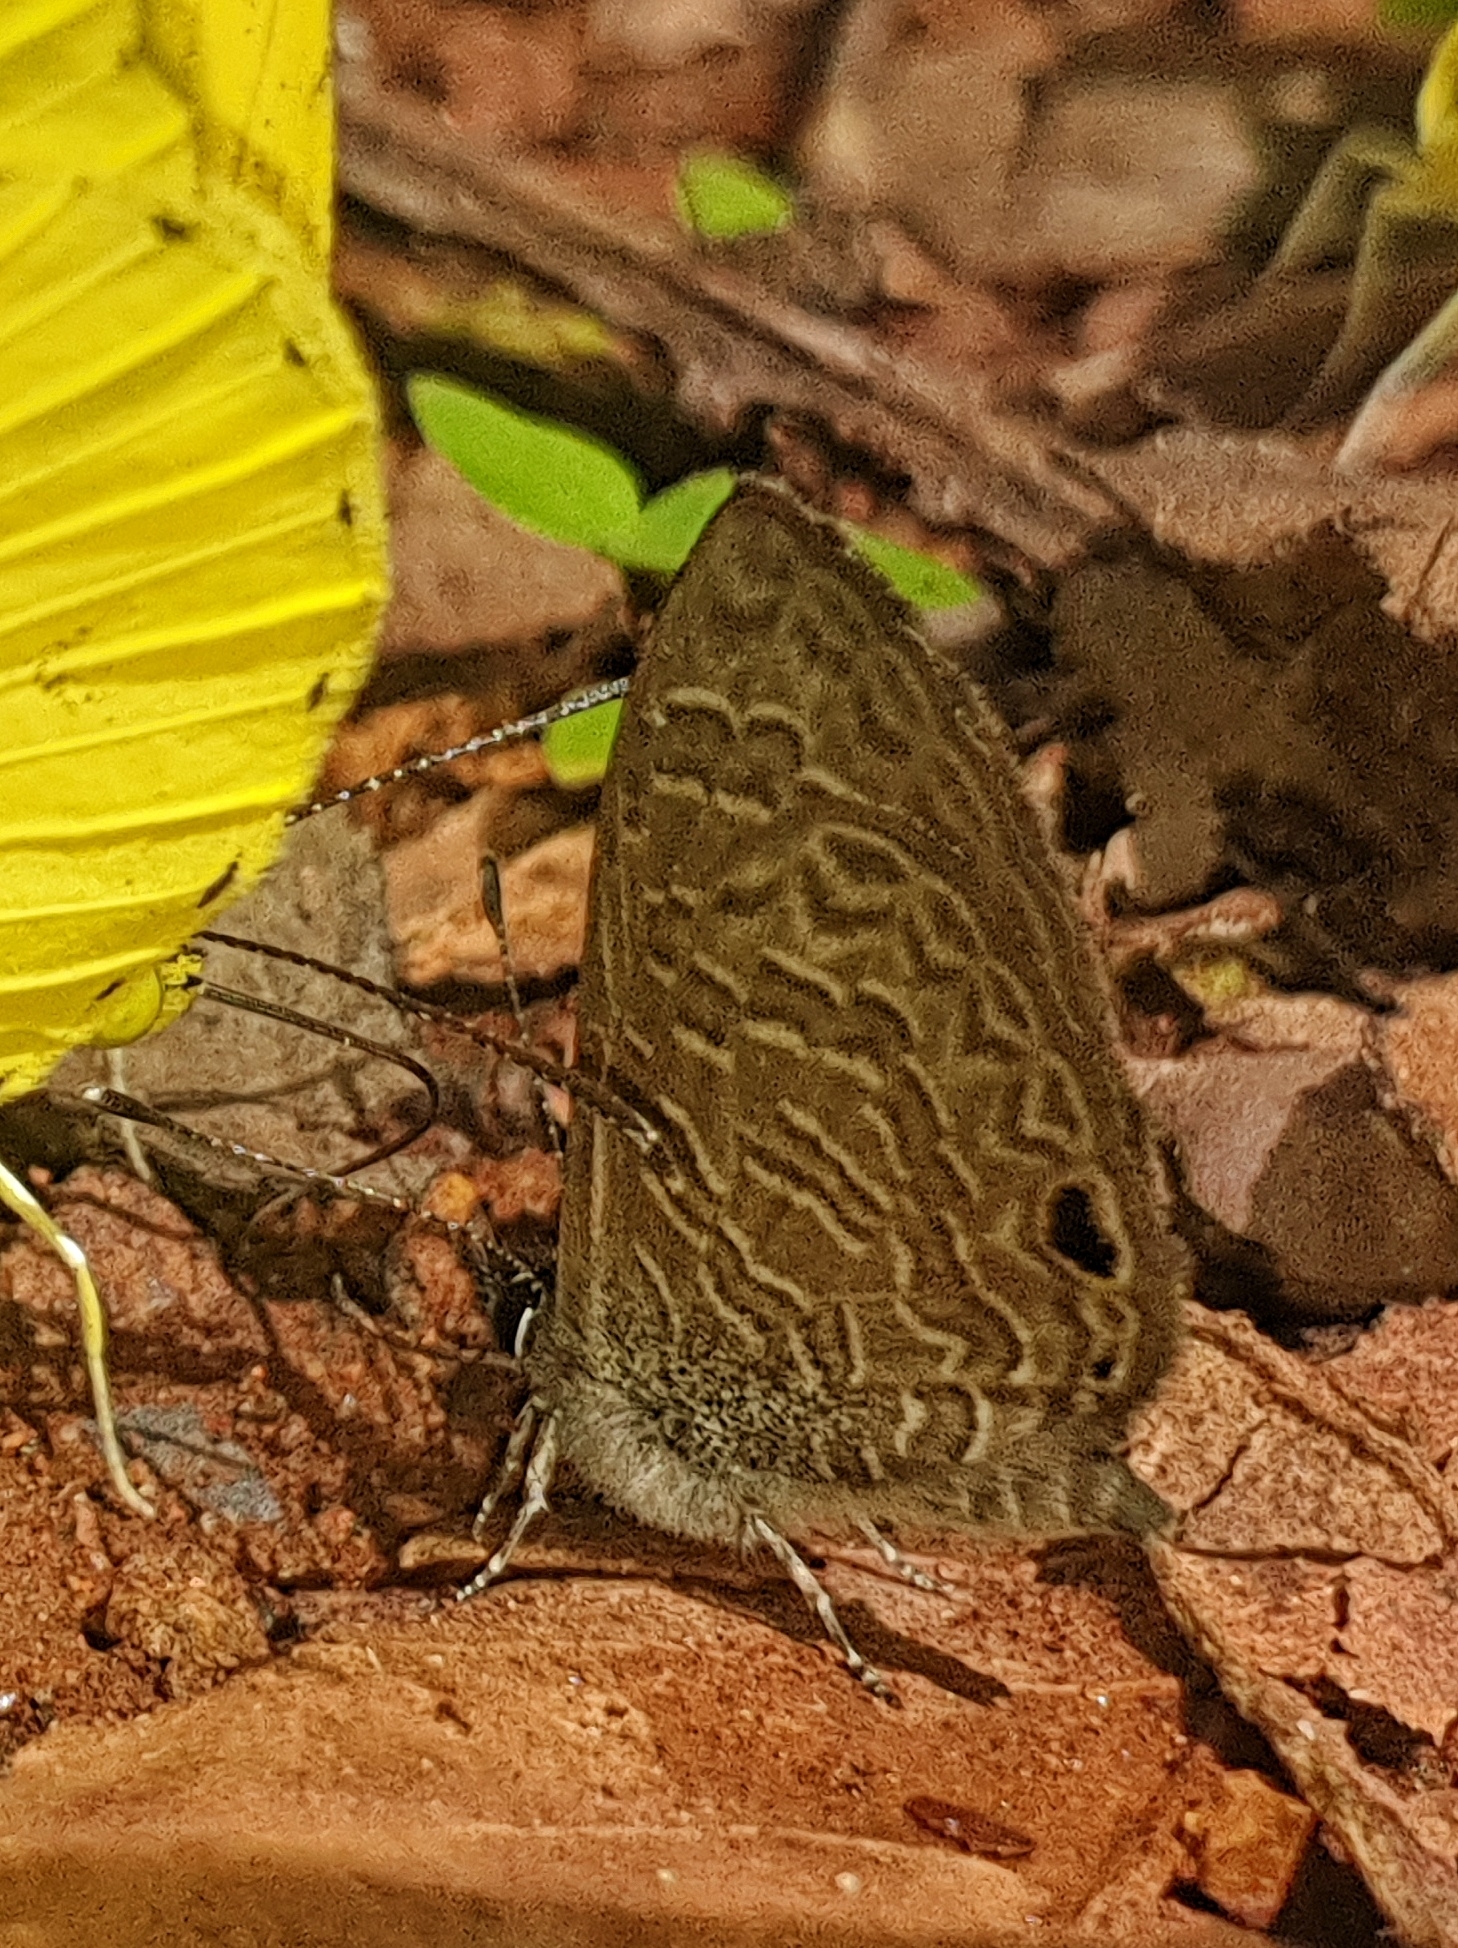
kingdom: Animalia
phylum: Arthropoda
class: Insecta
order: Lepidoptera
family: Lycaenidae
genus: Prosotas
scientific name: Prosotas dubiosa
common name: Tailless lineblue
